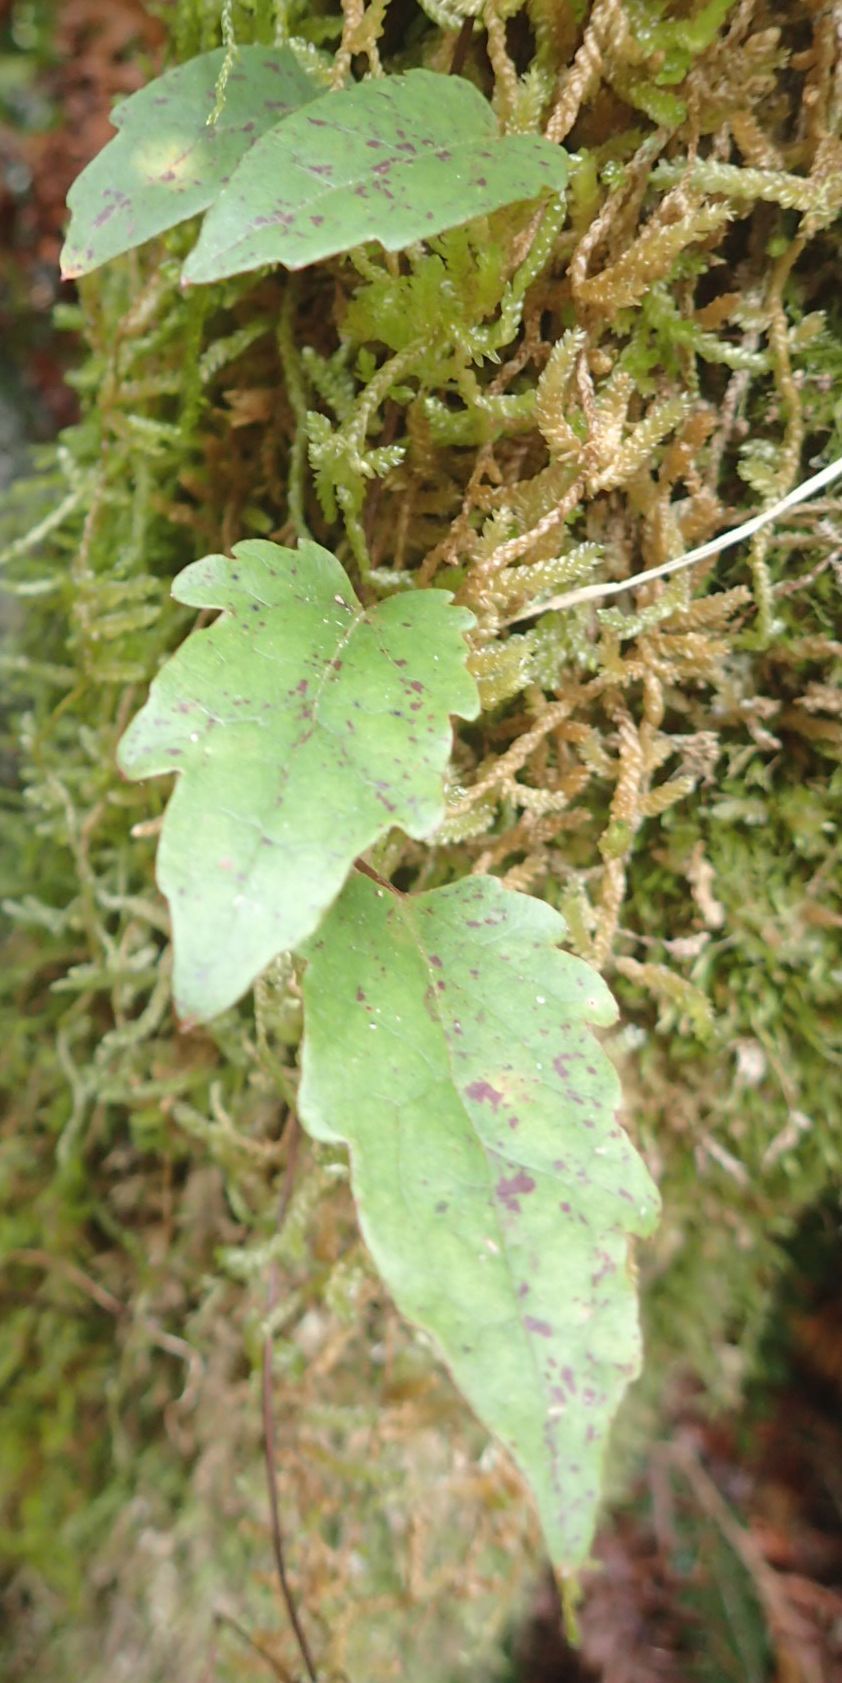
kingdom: Plantae
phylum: Tracheophyta
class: Magnoliopsida
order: Ranunculales
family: Ranunculaceae
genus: Clematis
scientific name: Clematis paniculata
